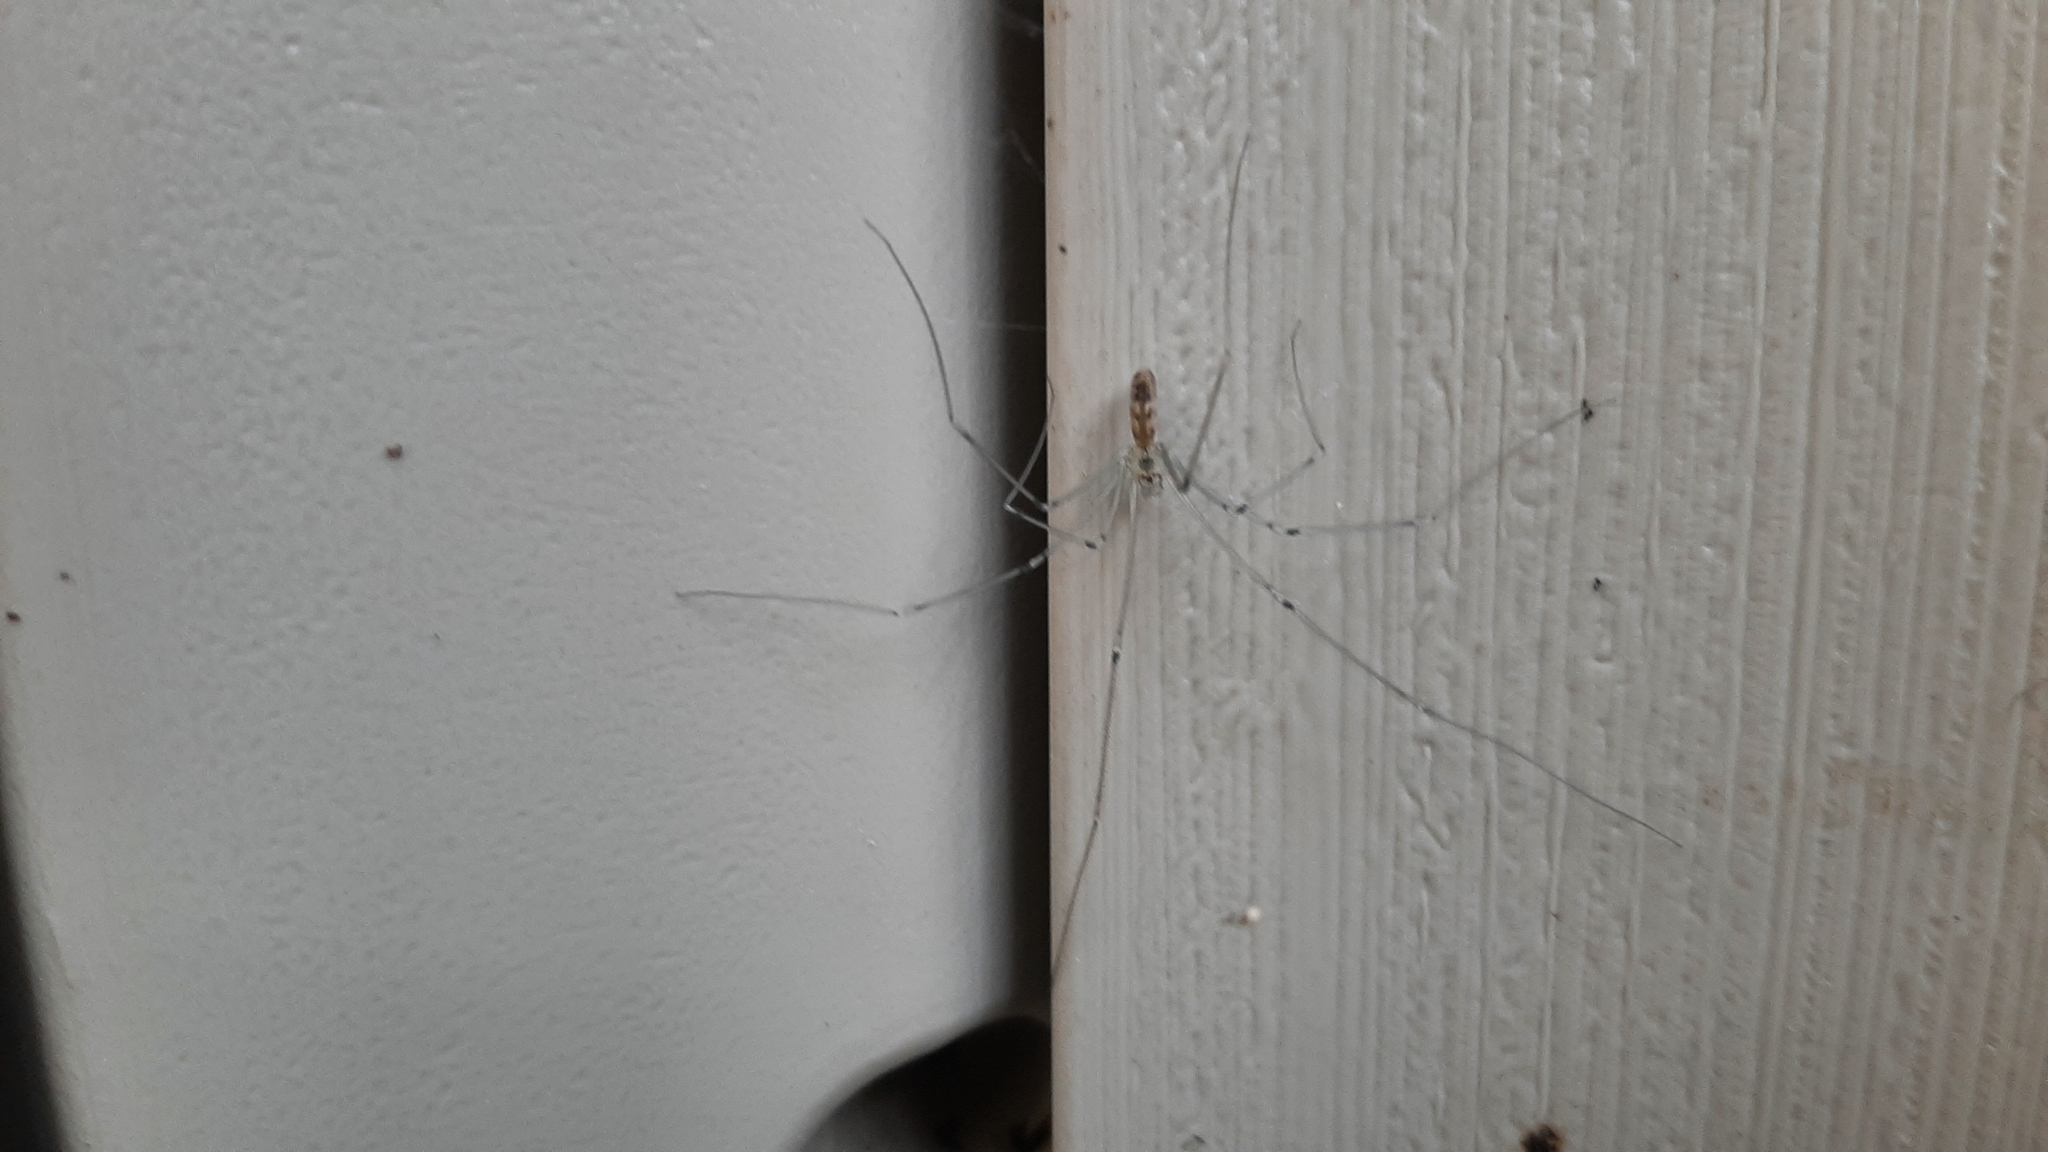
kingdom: Animalia
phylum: Arthropoda
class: Arachnida
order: Araneae
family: Pholcidae
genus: Pholcus
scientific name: Pholcus phalangioides
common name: Longbodied cellar spider
